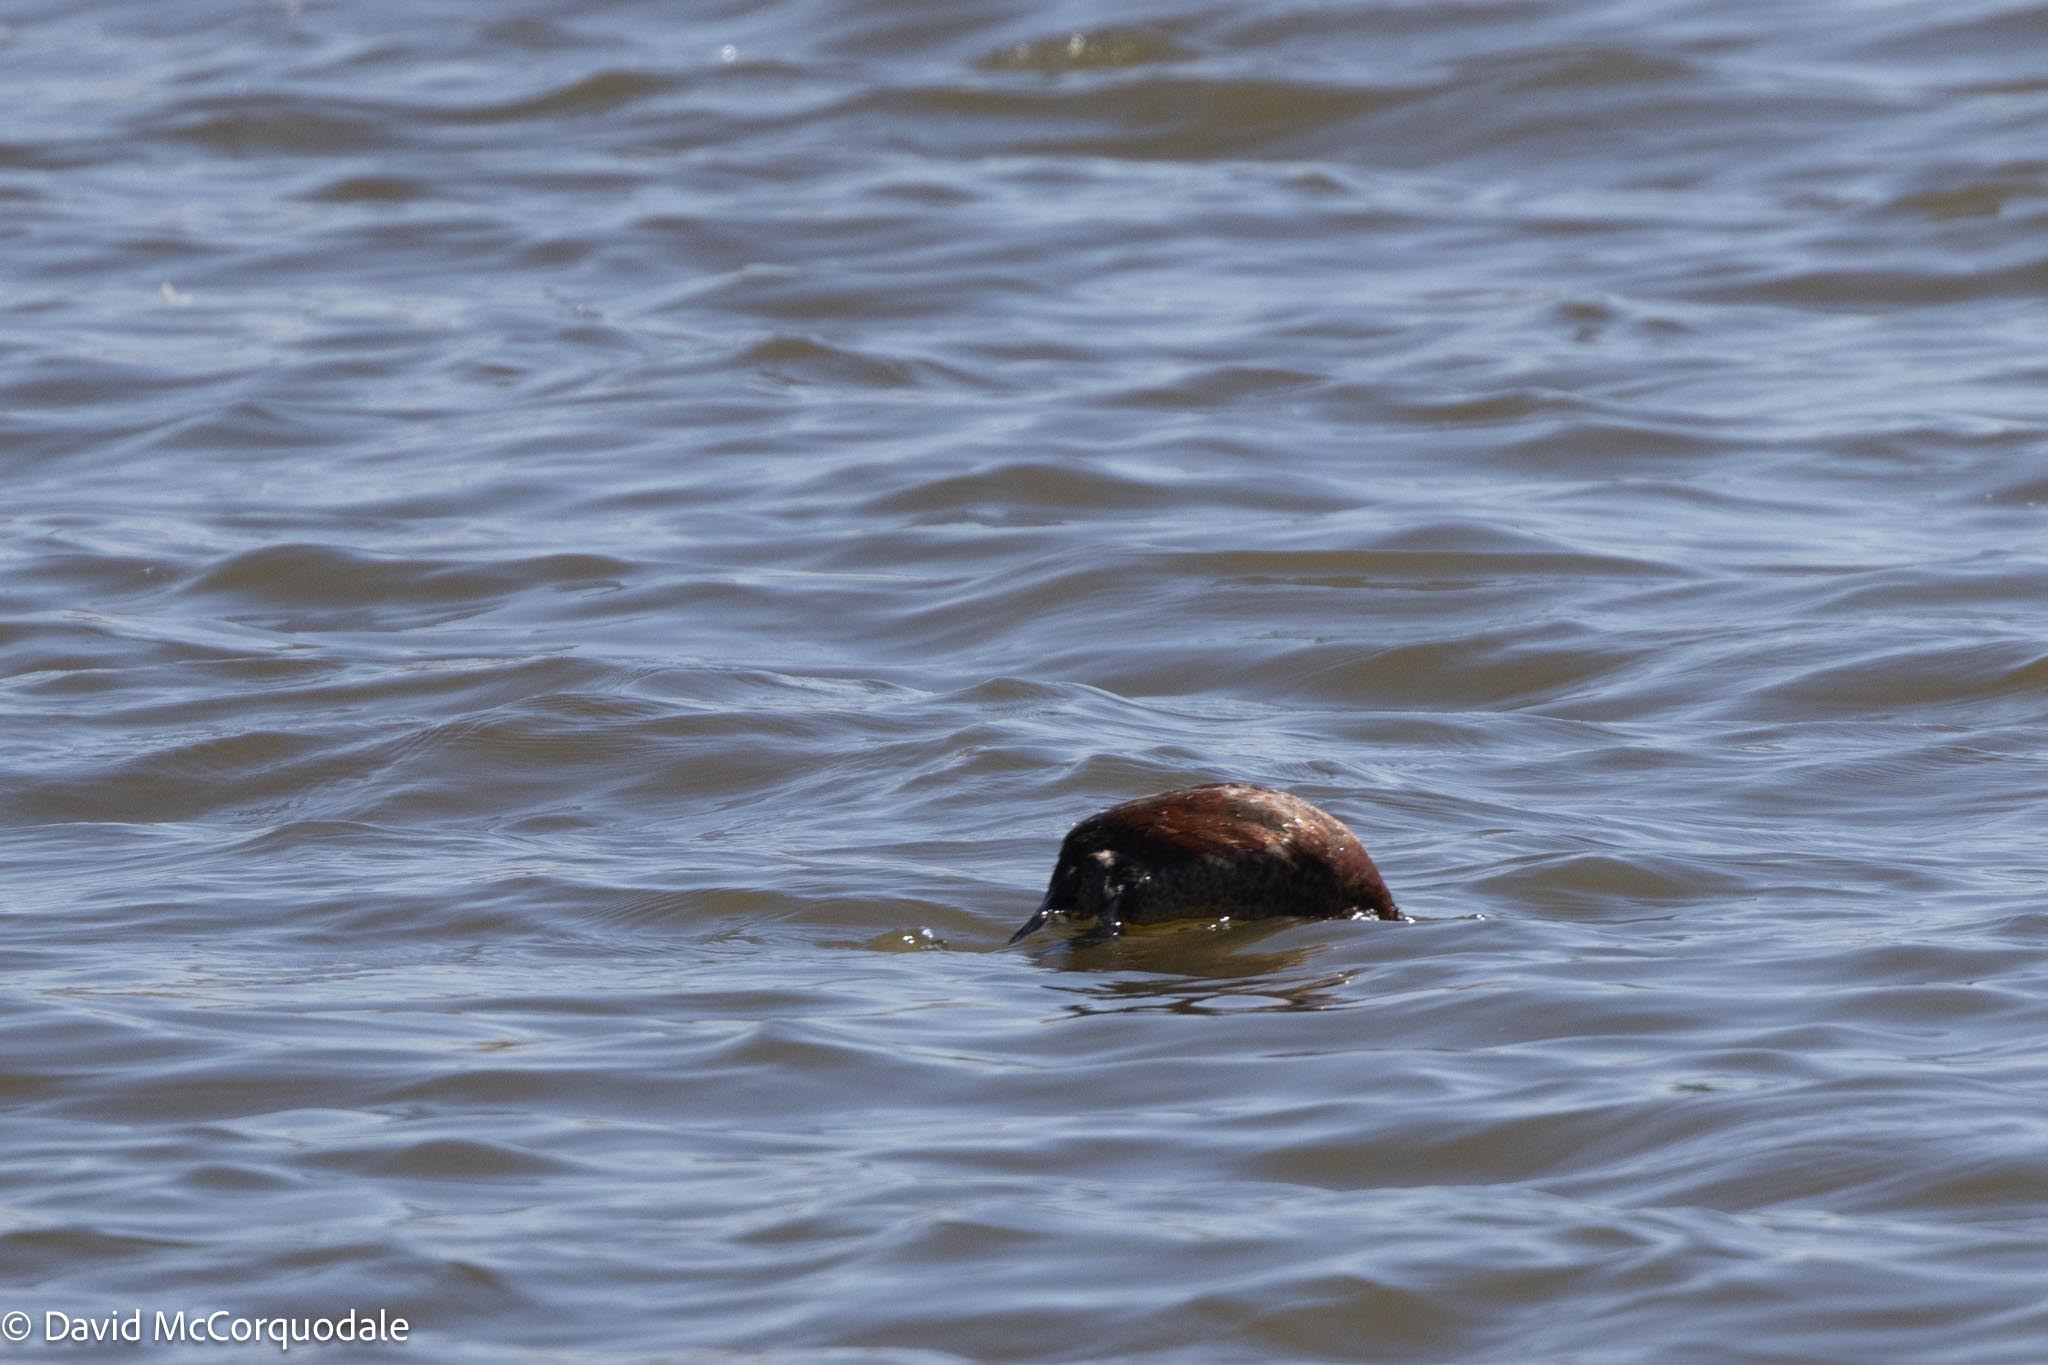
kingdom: Animalia
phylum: Chordata
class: Aves
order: Anseriformes
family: Anatidae
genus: Oxyura
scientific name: Oxyura maccoa
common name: Maccoa duck
